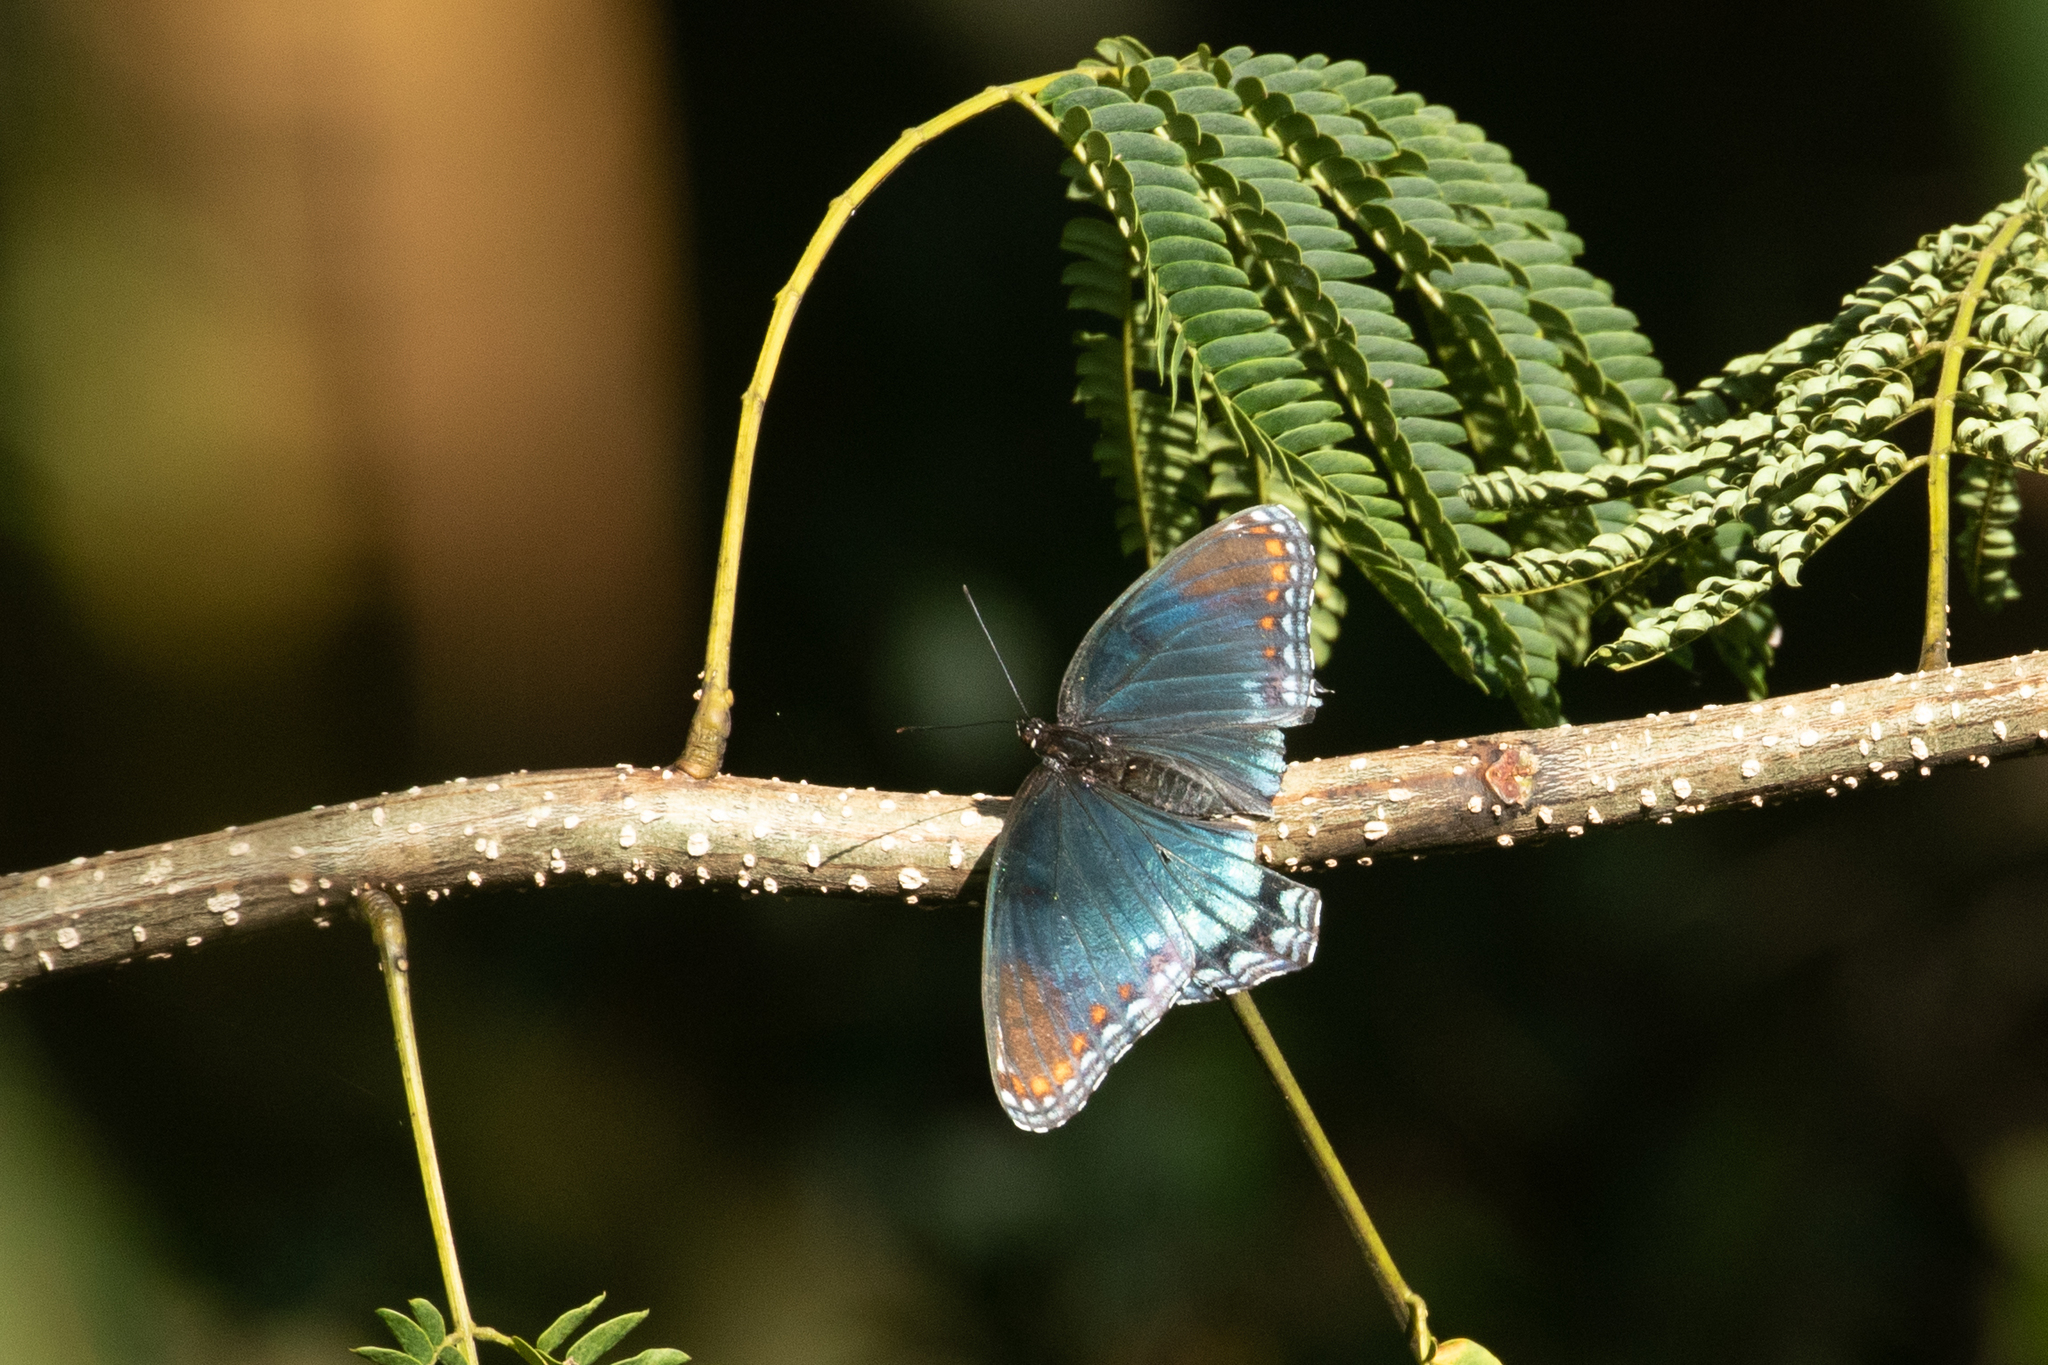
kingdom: Animalia
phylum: Arthropoda
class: Insecta
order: Lepidoptera
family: Nymphalidae
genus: Limenitis
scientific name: Limenitis astyanax
